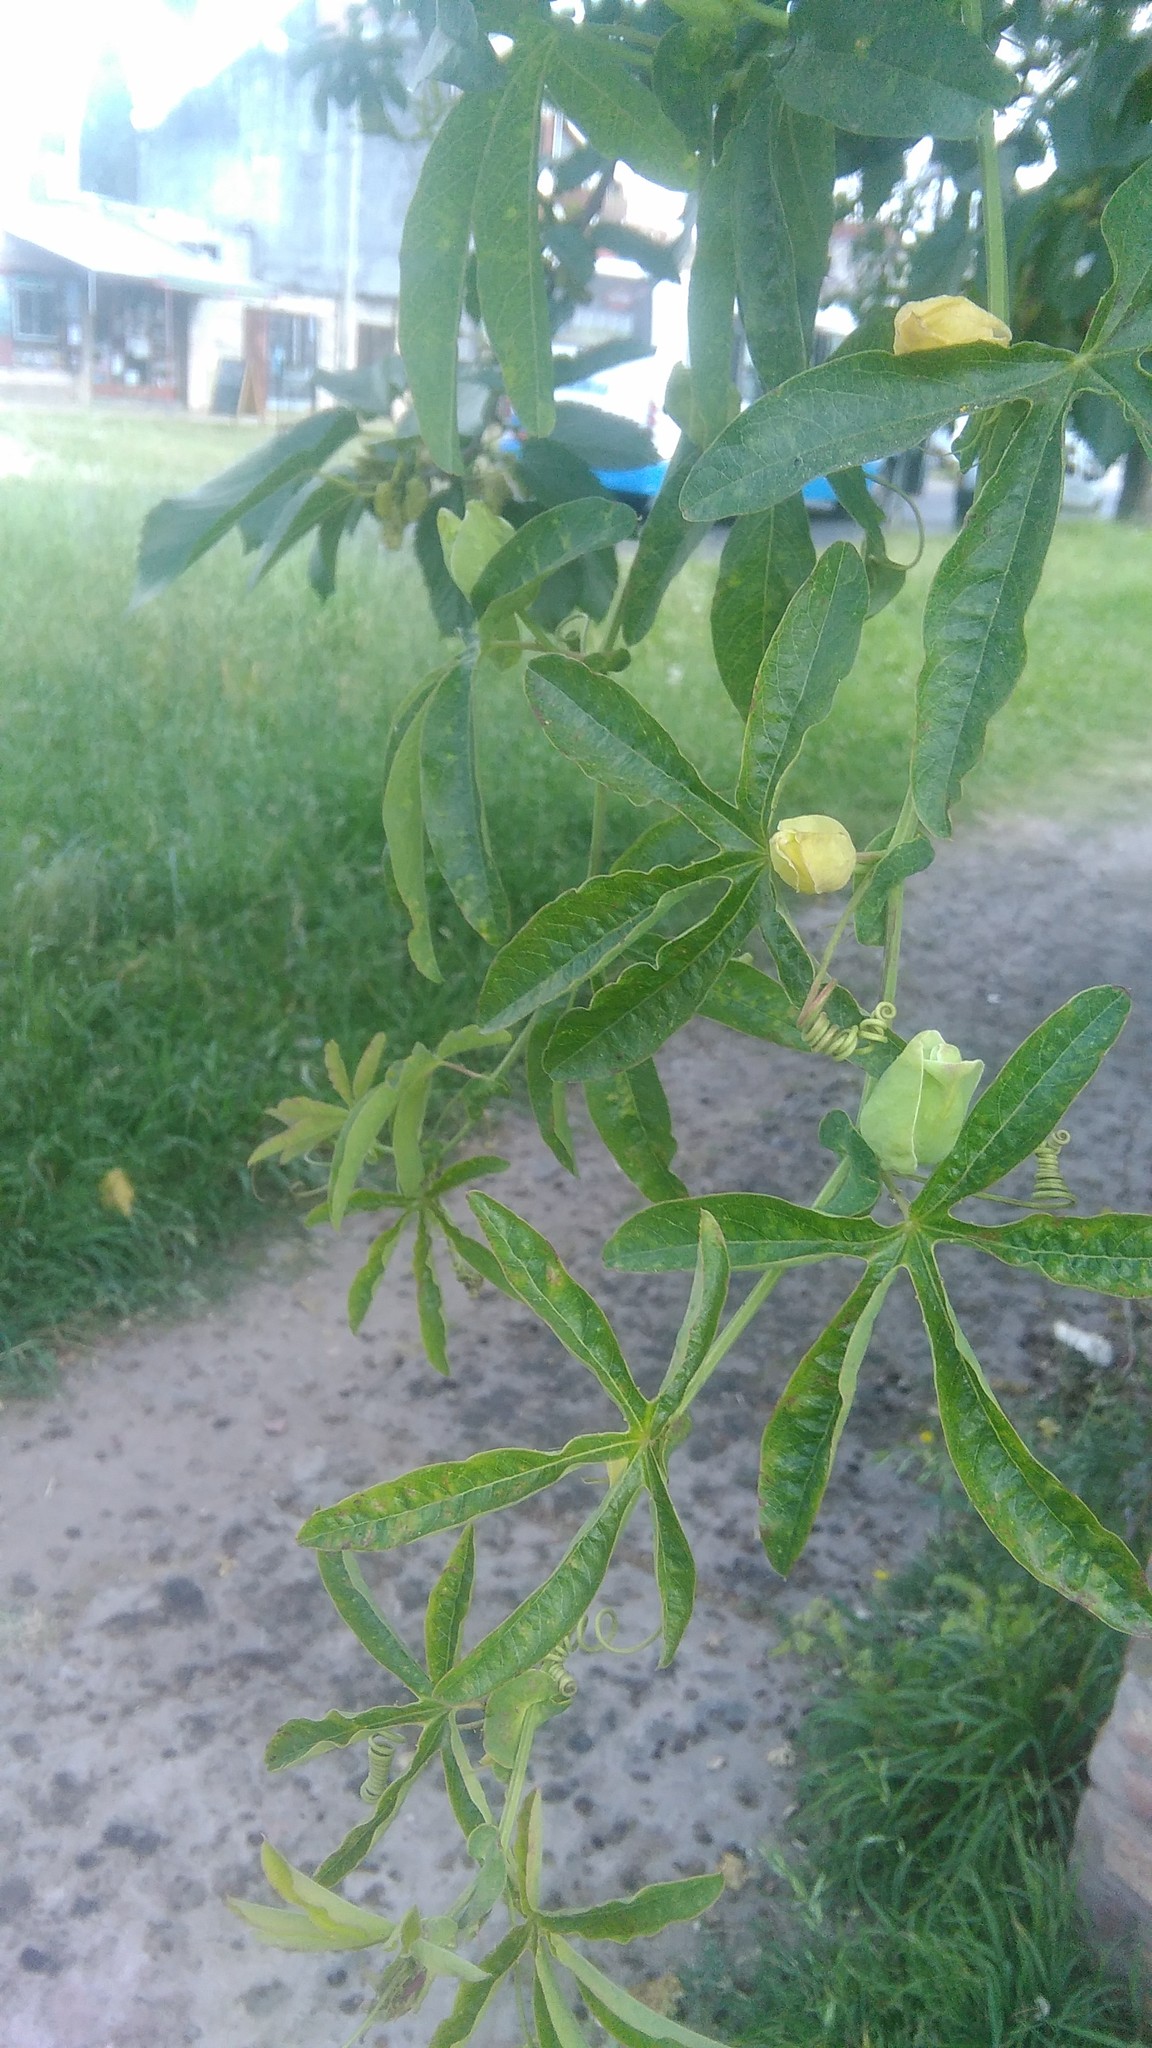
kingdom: Plantae
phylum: Tracheophyta
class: Magnoliopsida
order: Malpighiales
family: Passifloraceae
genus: Passiflora
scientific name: Passiflora caerulea
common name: Blue passionflower
